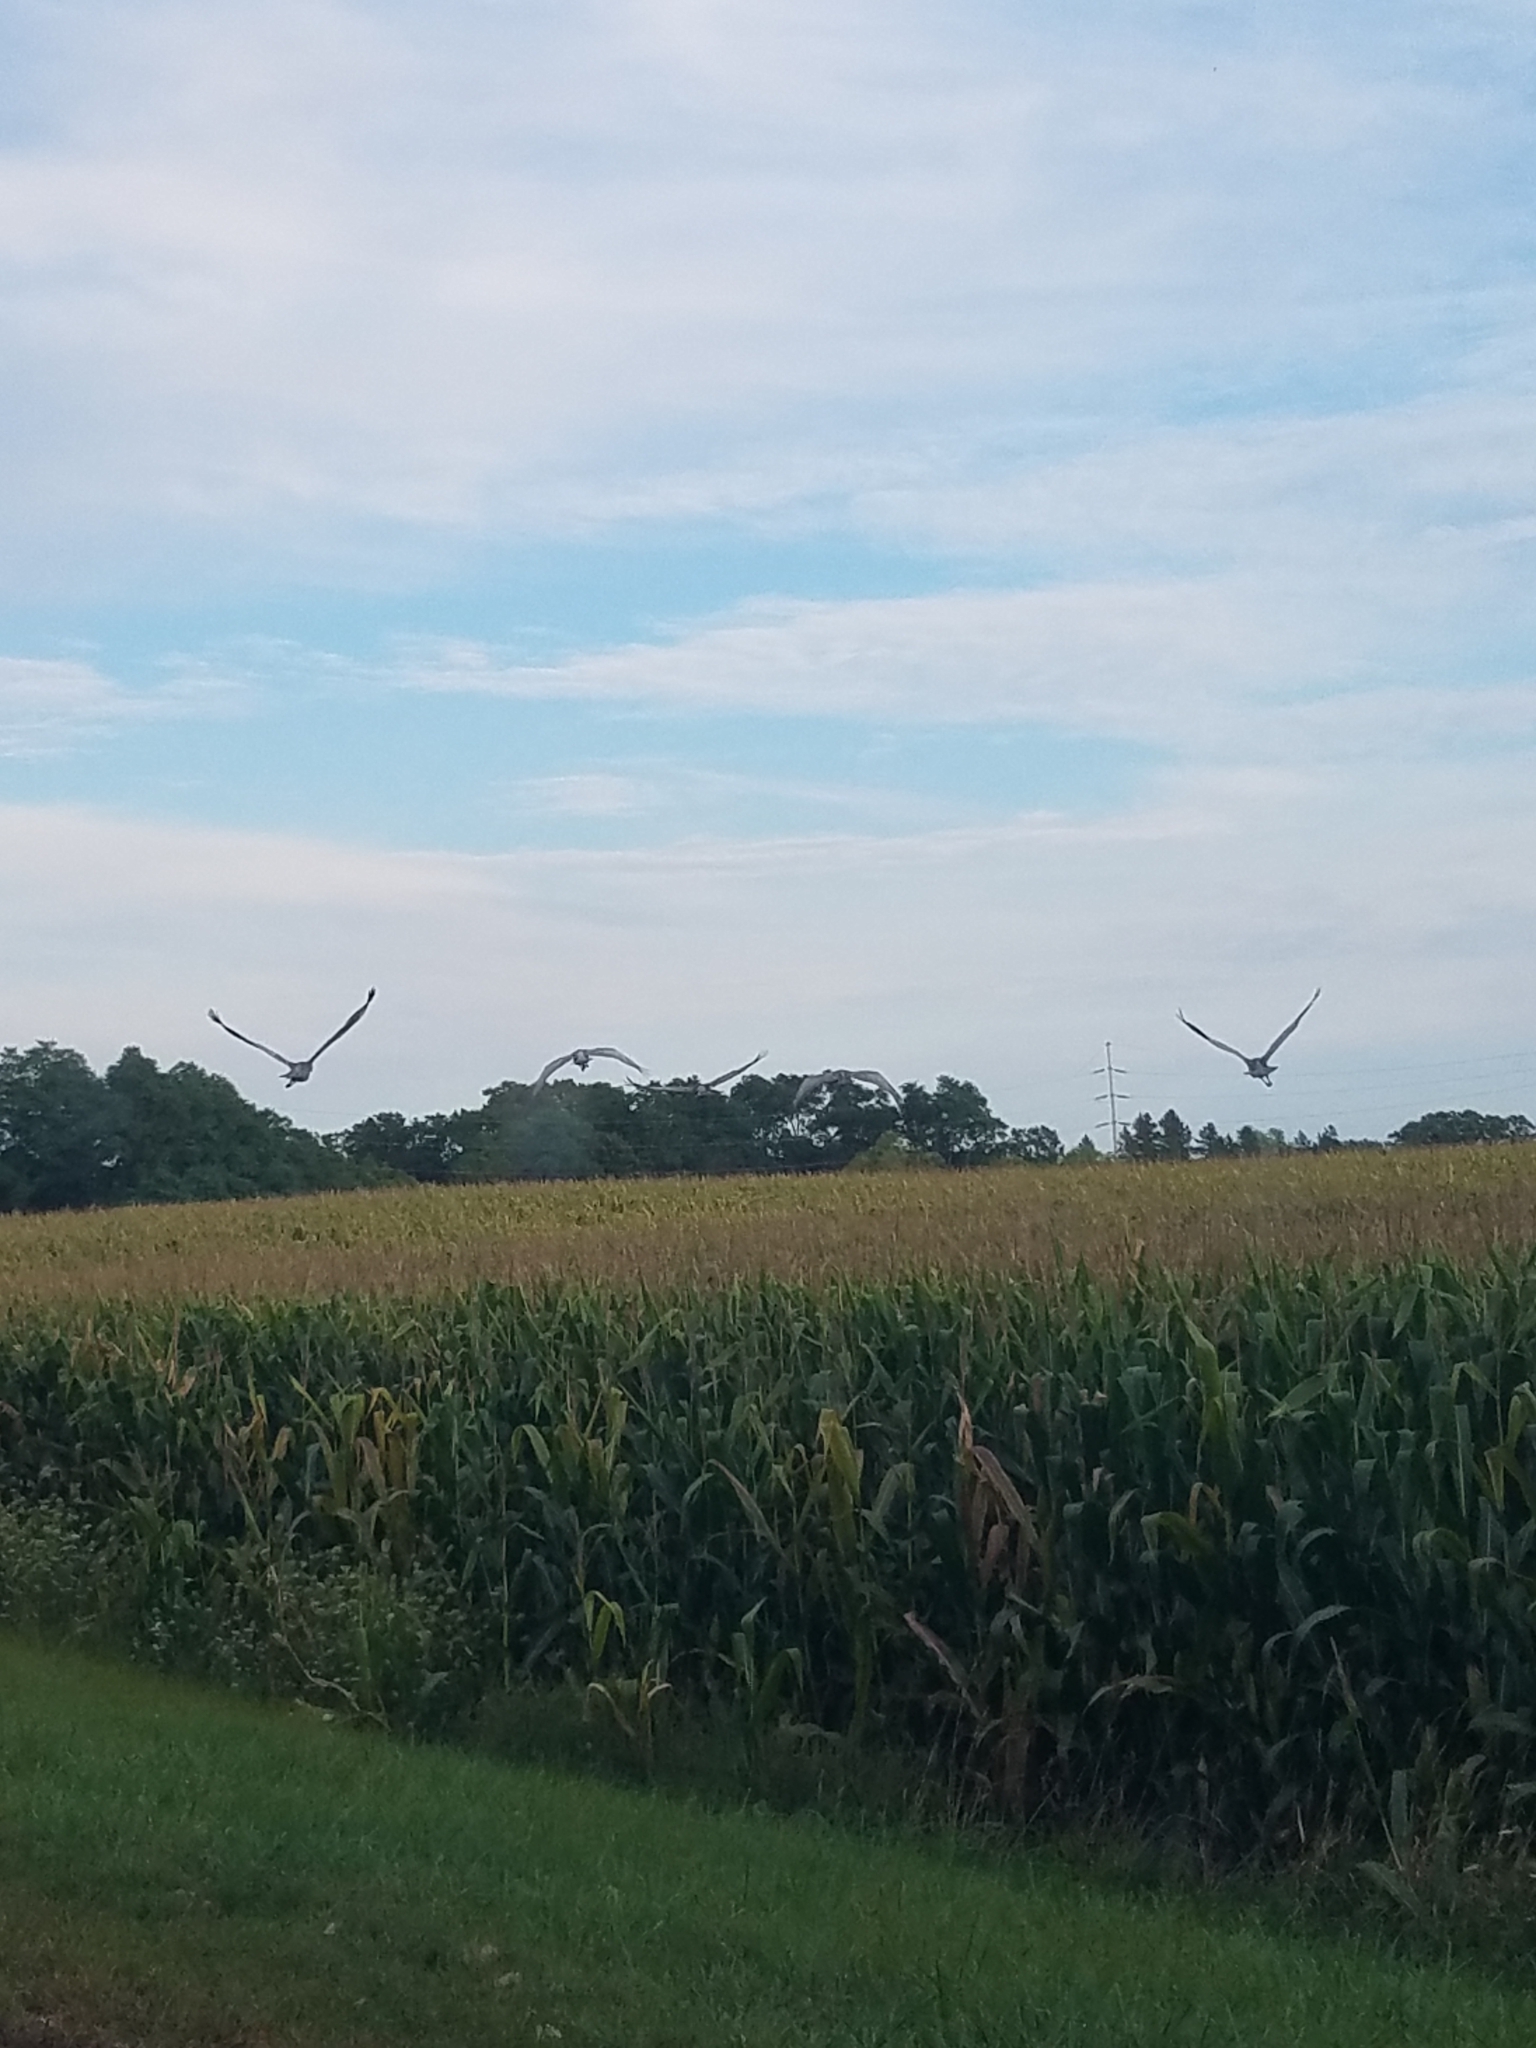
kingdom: Animalia
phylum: Chordata
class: Aves
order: Gruiformes
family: Gruidae
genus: Grus
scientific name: Grus canadensis
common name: Sandhill crane
